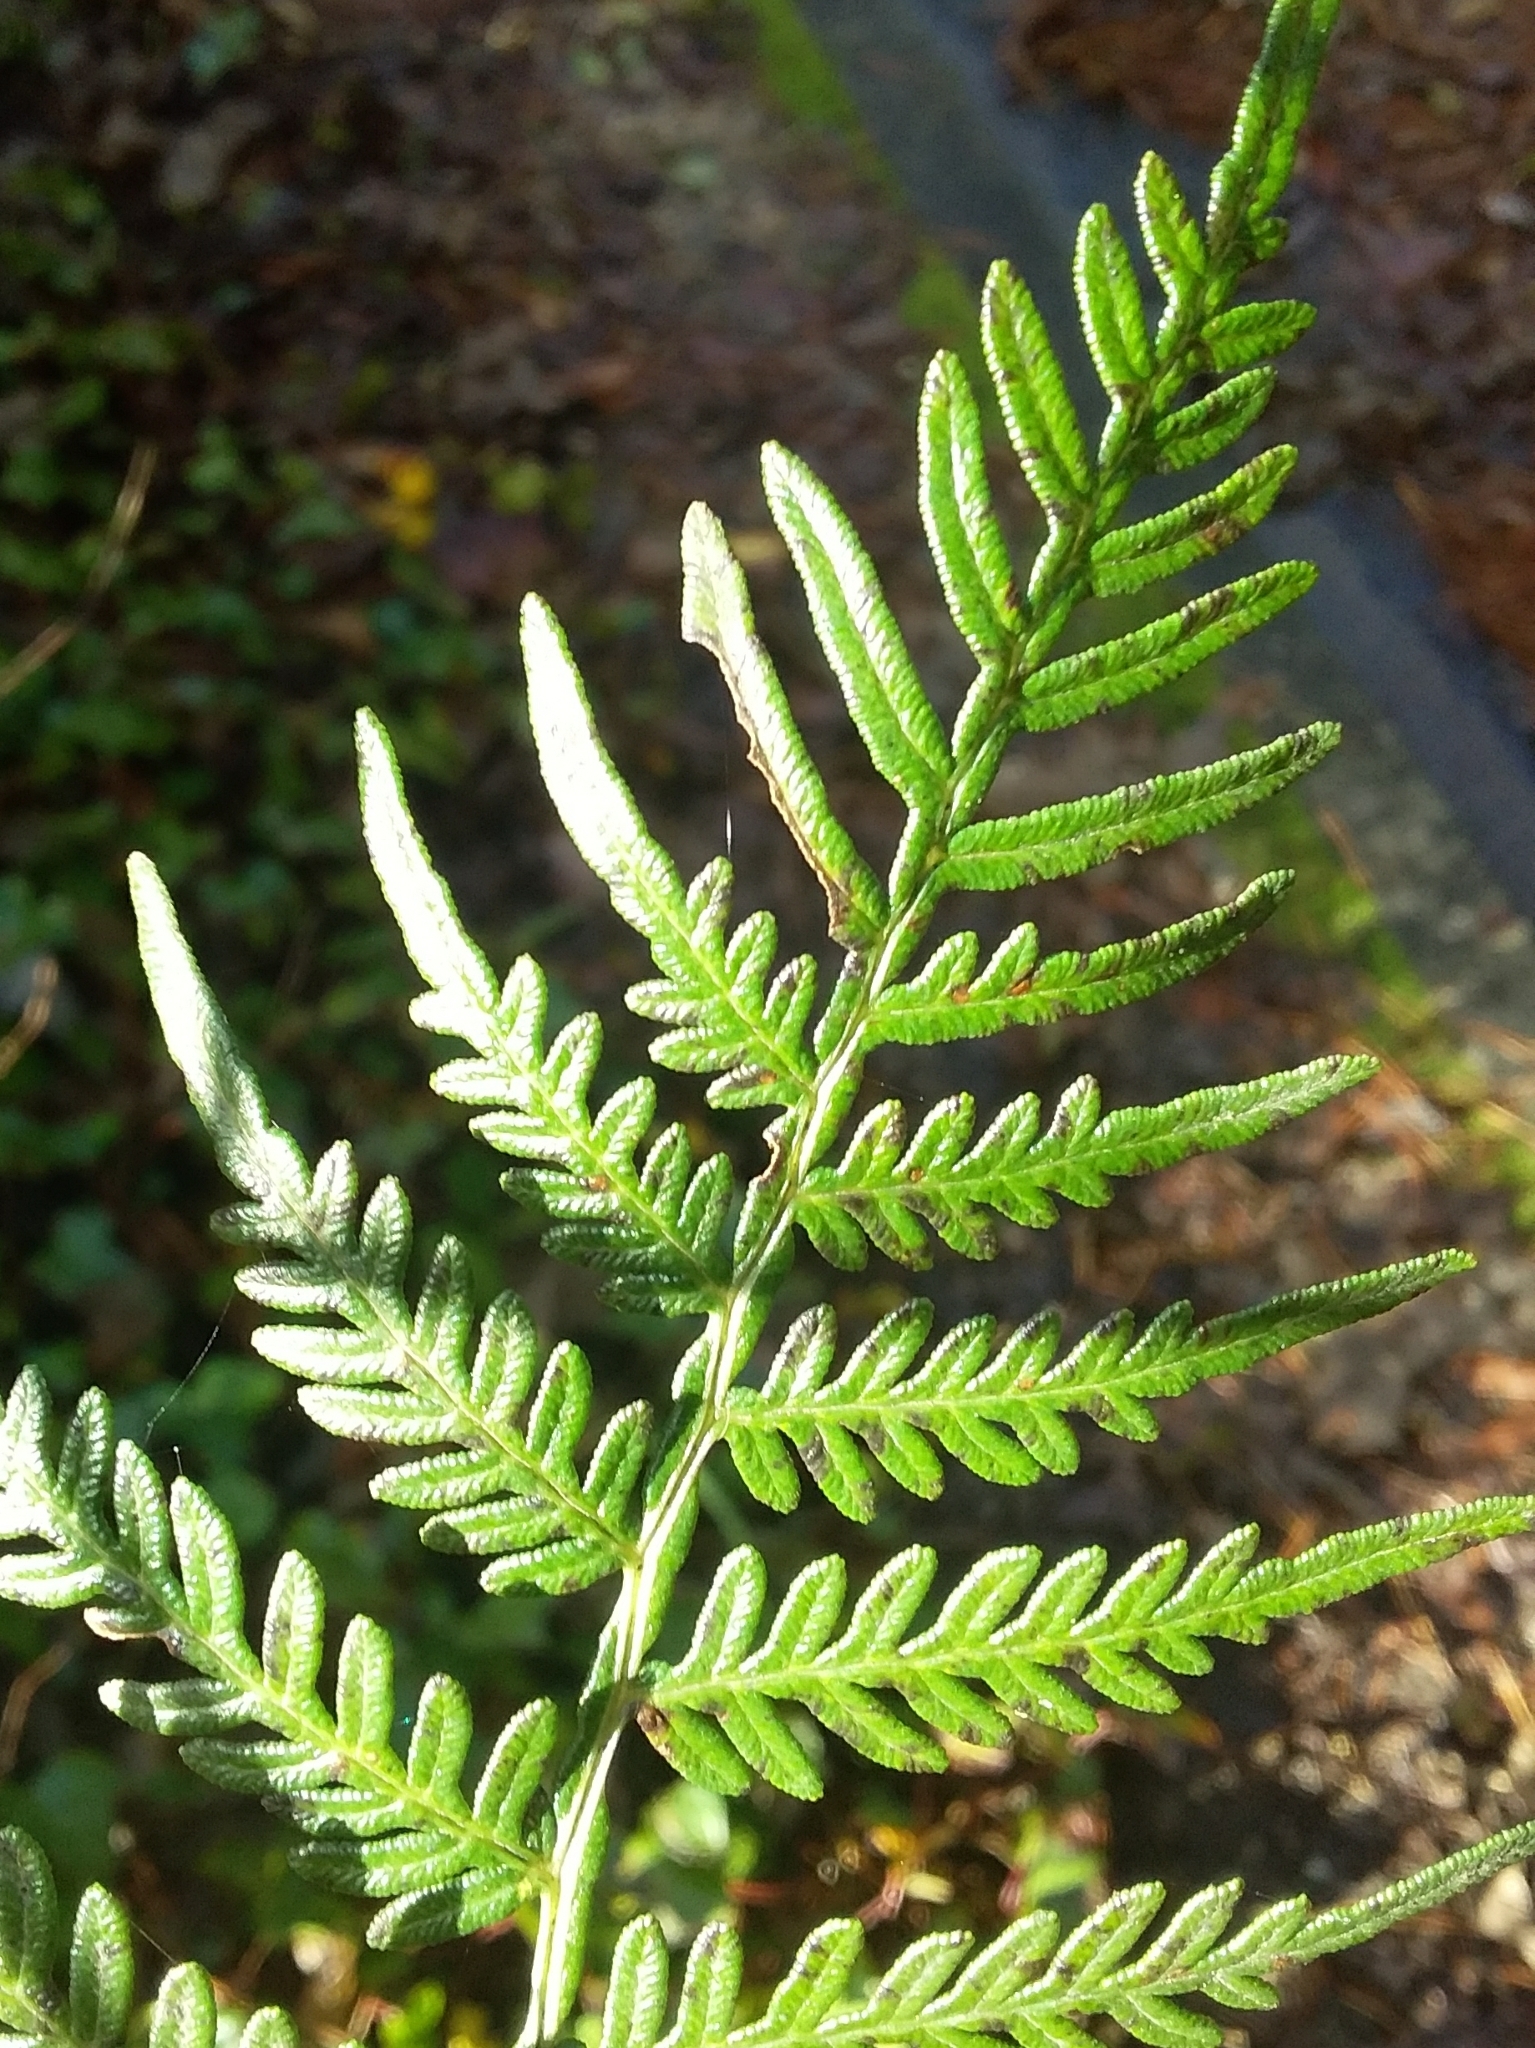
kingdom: Plantae
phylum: Tracheophyta
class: Polypodiopsida
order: Polypodiales
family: Dennstaedtiaceae
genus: Pteridium
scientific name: Pteridium esculentum
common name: Bracken fern
